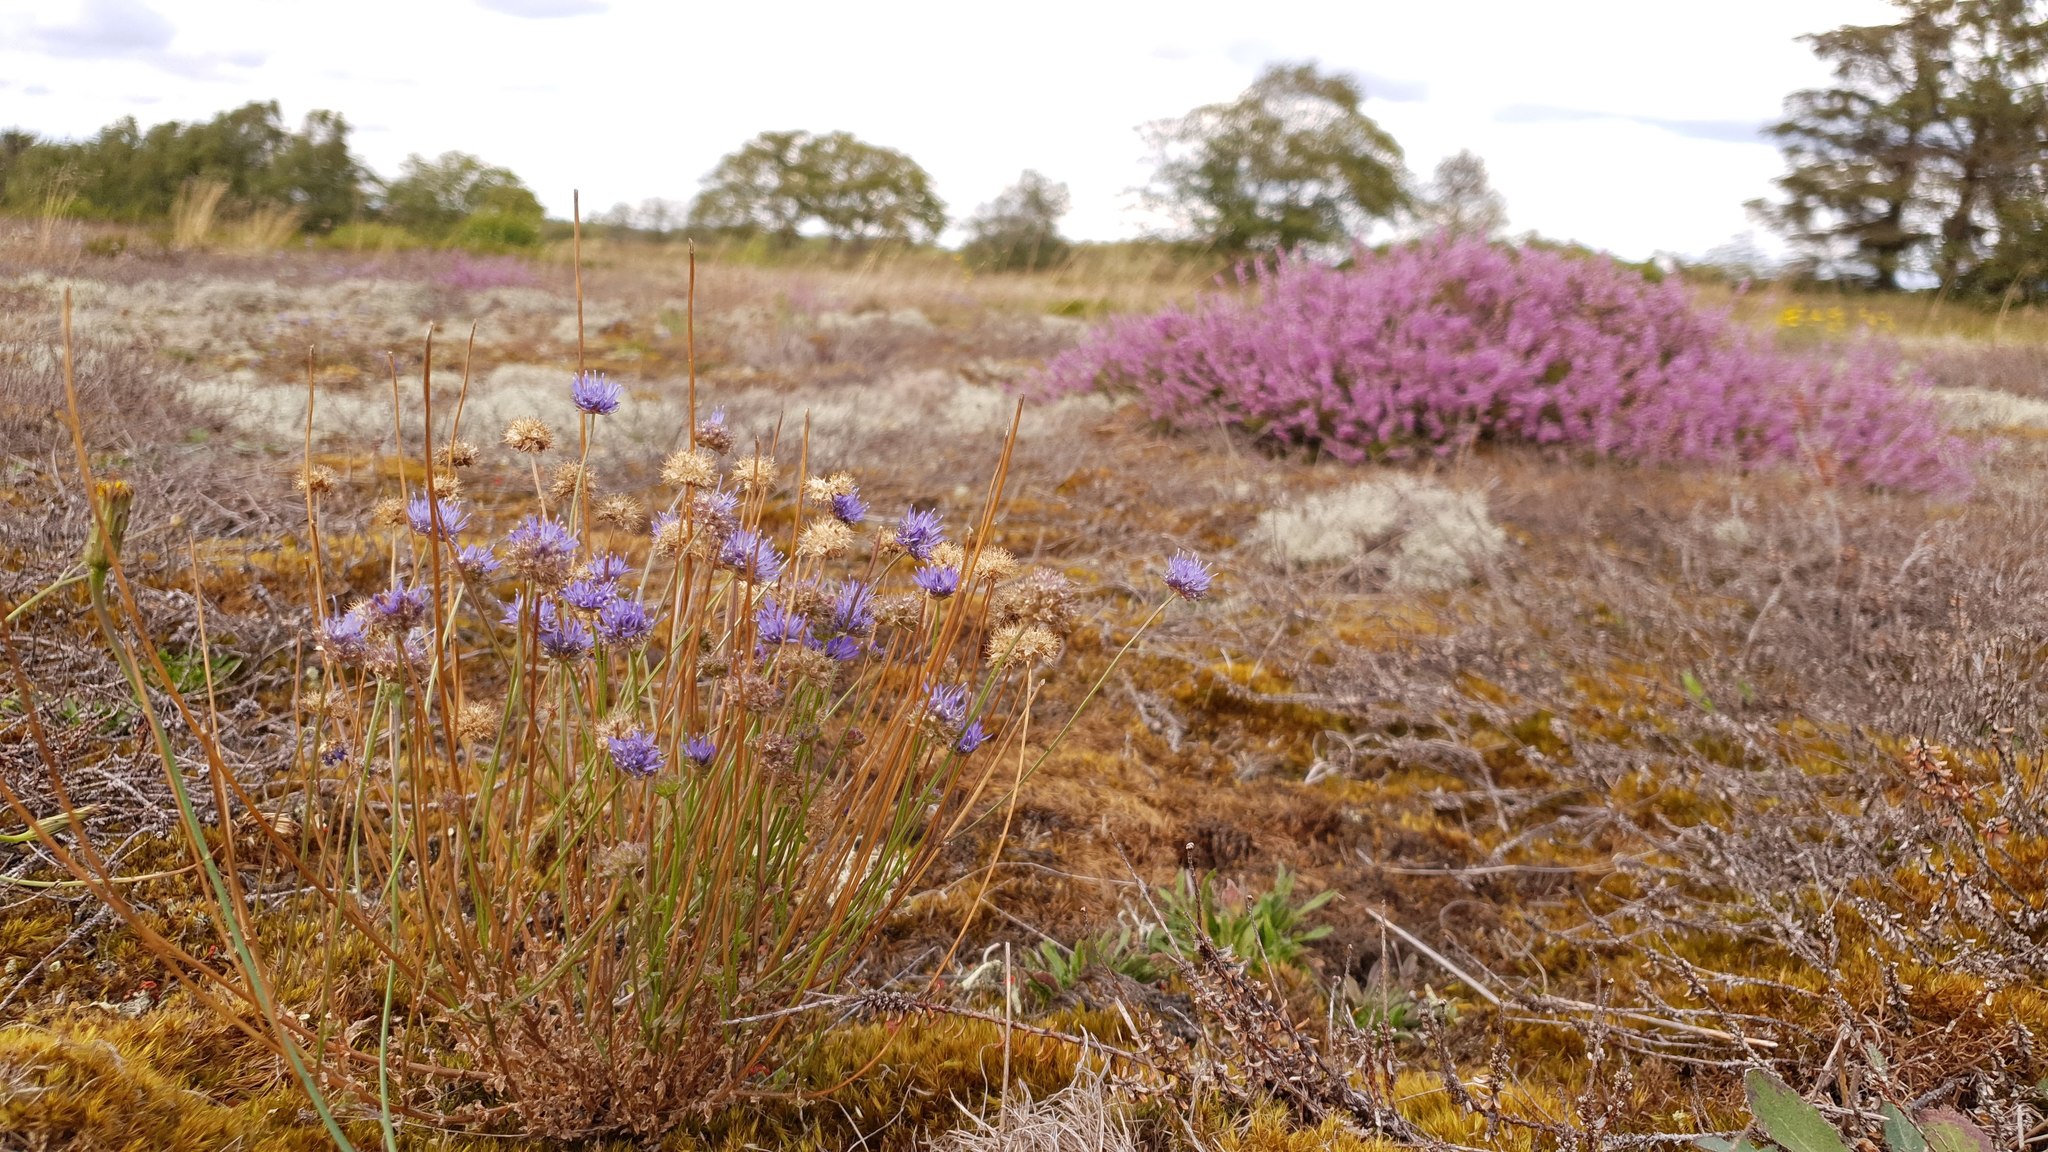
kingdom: Plantae
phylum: Tracheophyta
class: Magnoliopsida
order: Asterales
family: Campanulaceae
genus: Jasione
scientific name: Jasione montana
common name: Sheep's-bit
